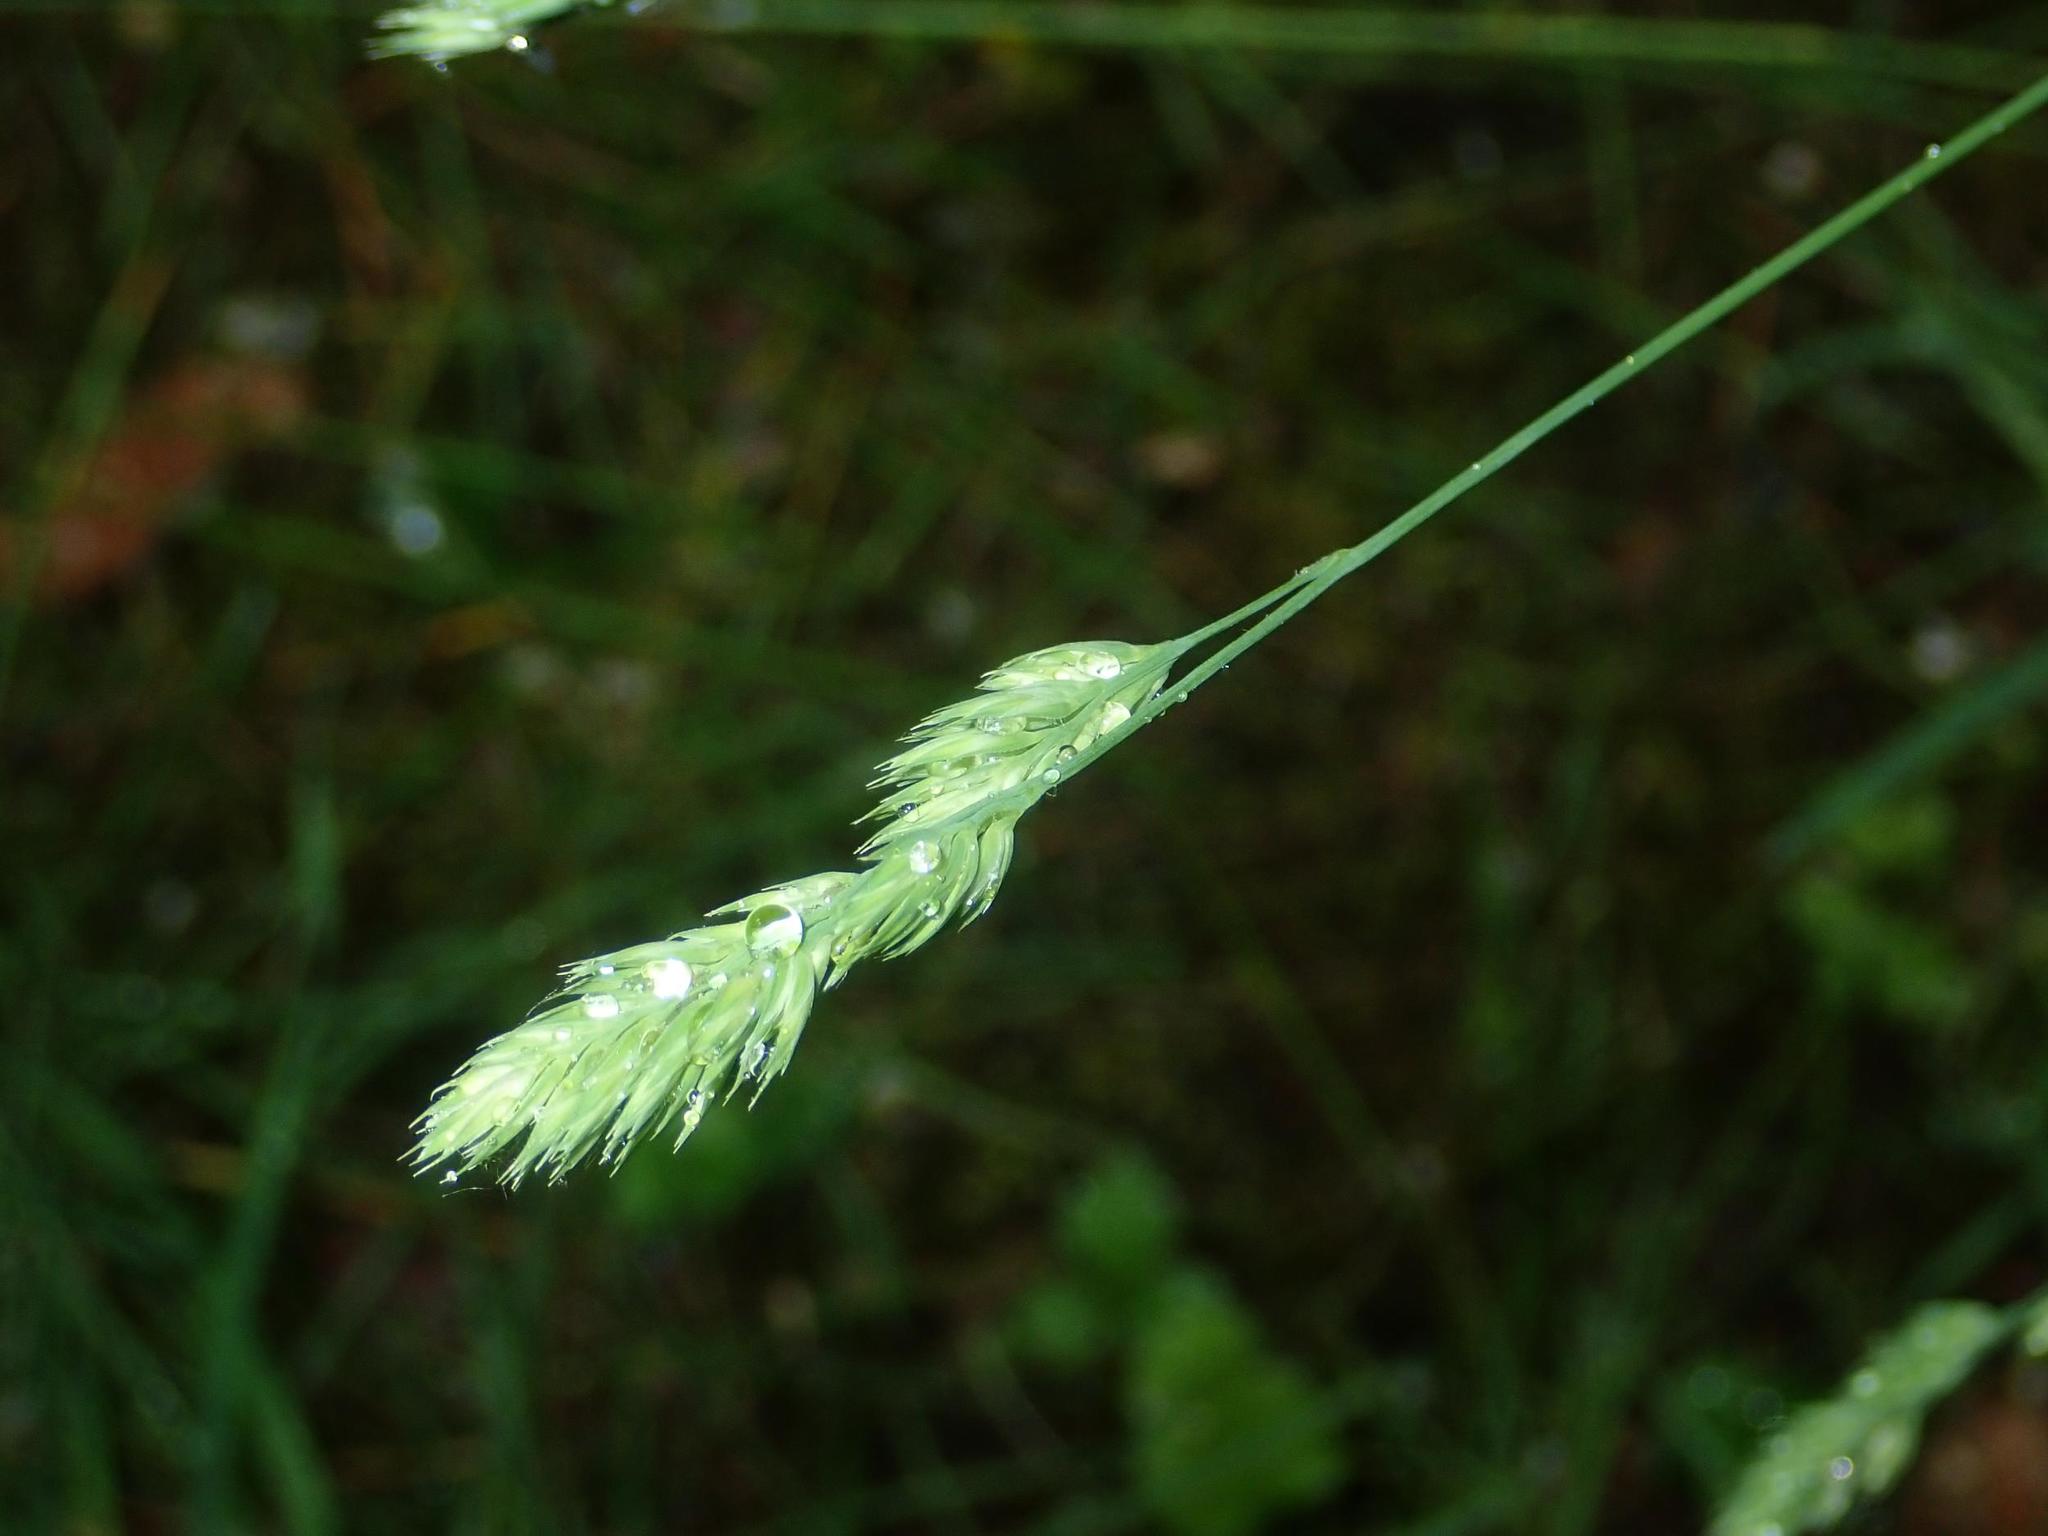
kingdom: Plantae
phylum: Tracheophyta
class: Liliopsida
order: Poales
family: Poaceae
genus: Dactylis
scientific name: Dactylis glomerata
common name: Orchardgrass
